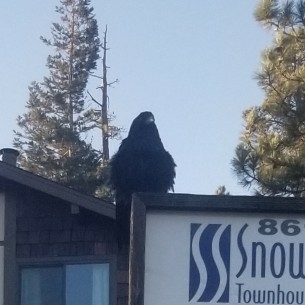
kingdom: Animalia
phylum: Chordata
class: Aves
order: Passeriformes
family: Corvidae
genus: Corvus
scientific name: Corvus corax
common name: Common raven
